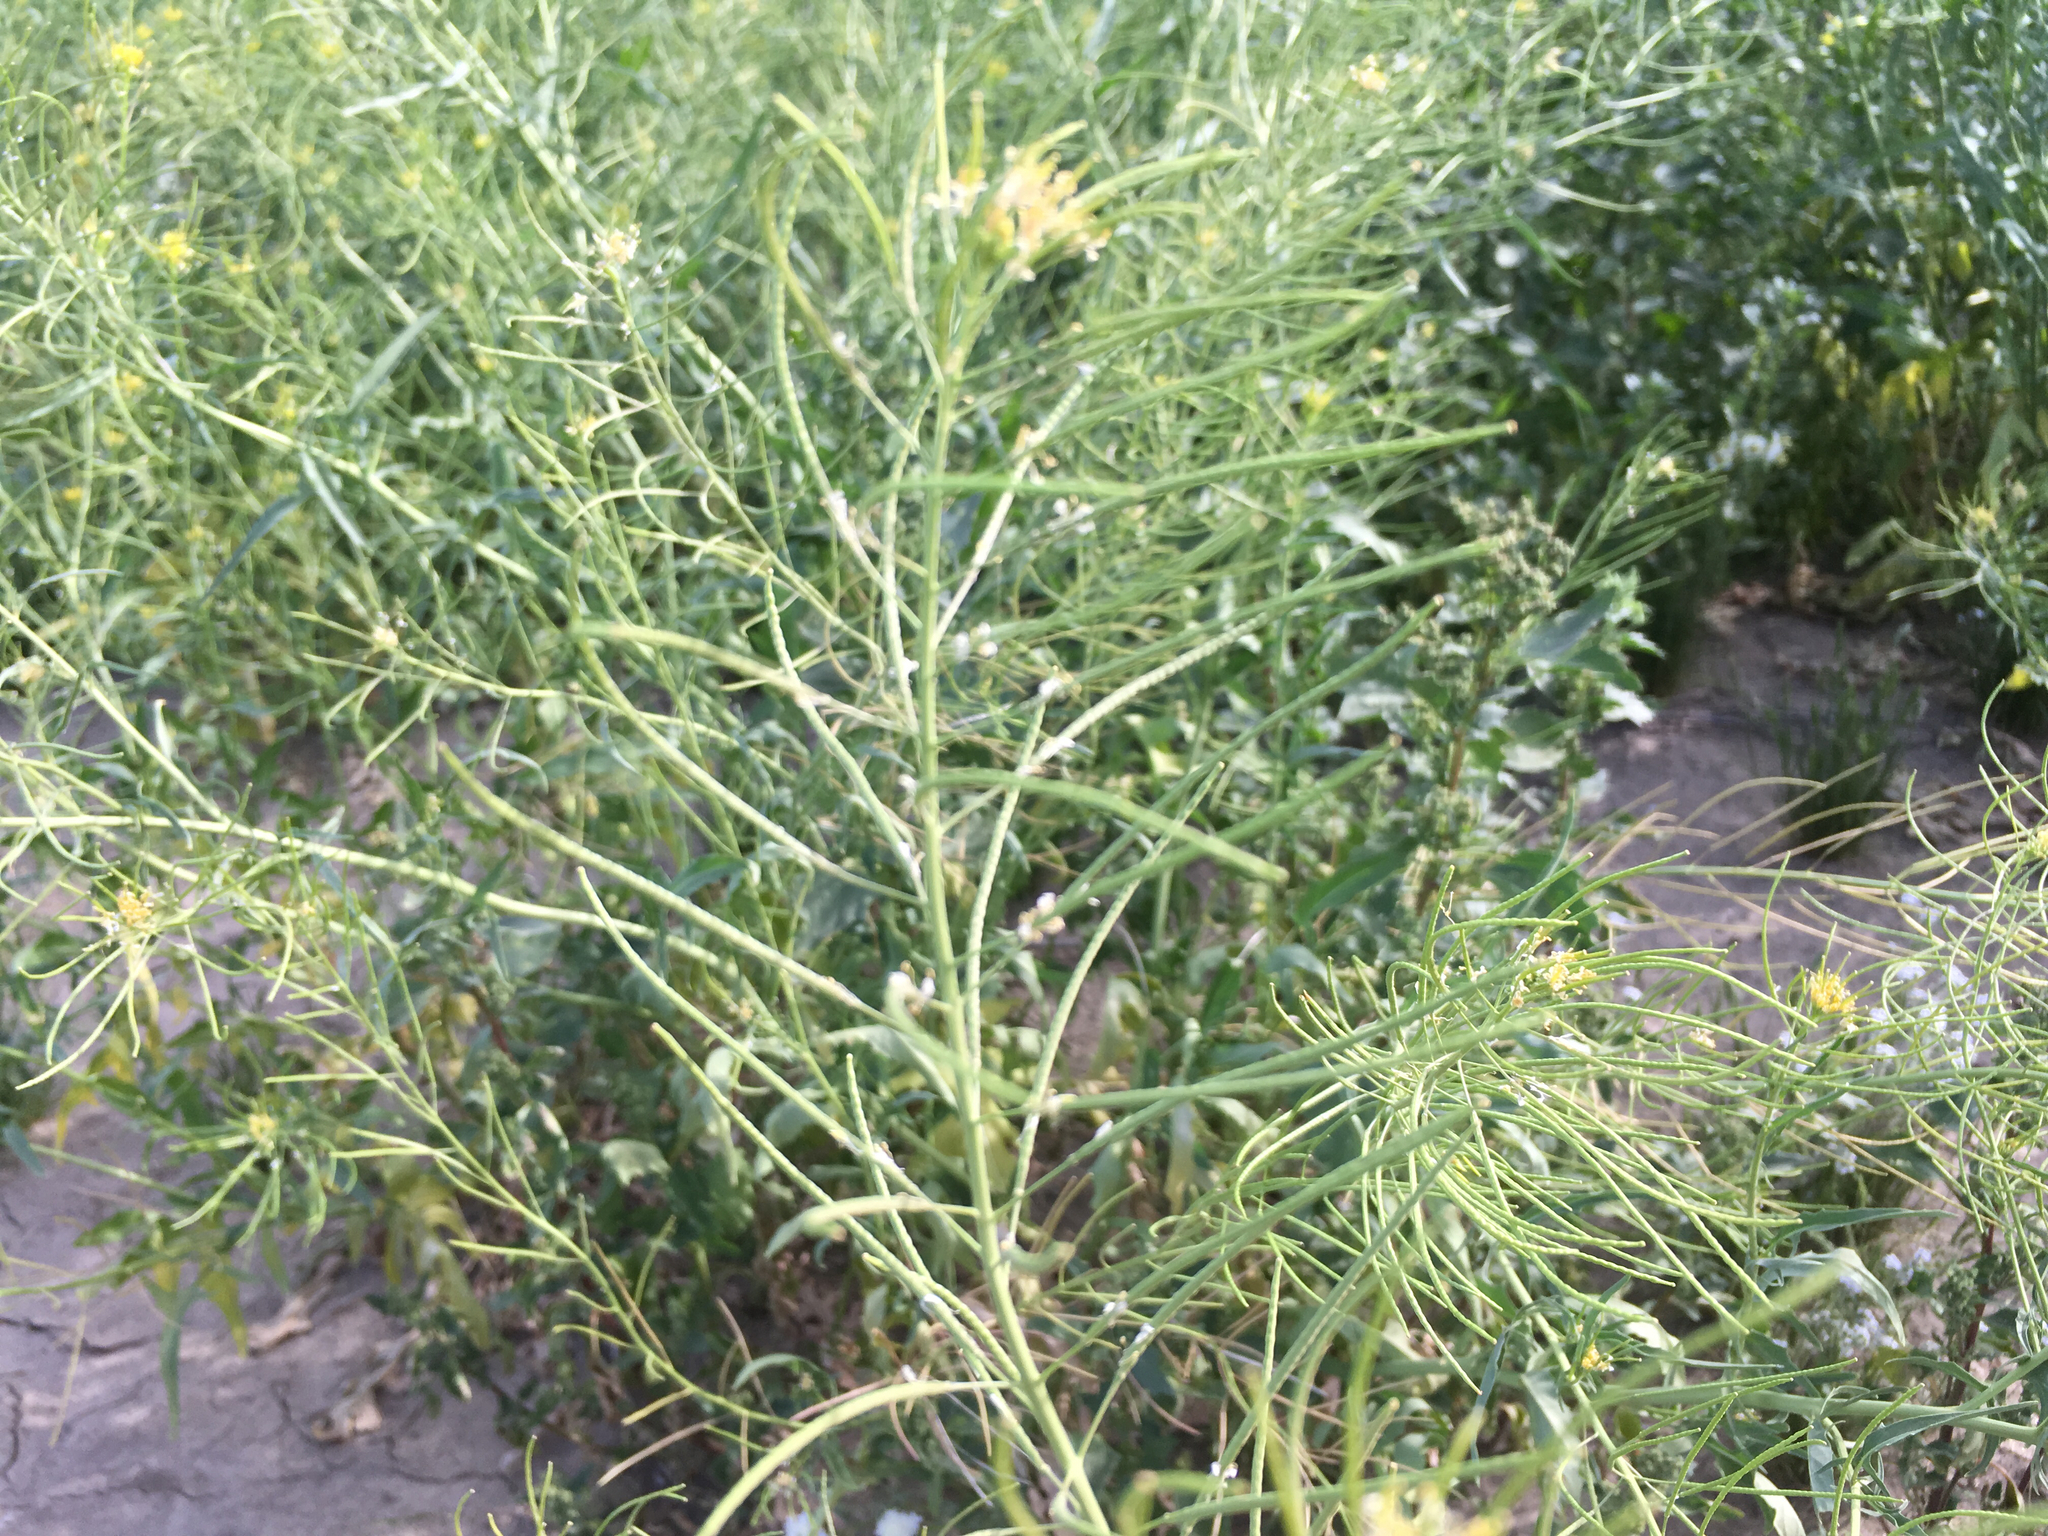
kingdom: Plantae
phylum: Tracheophyta
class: Magnoliopsida
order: Brassicales
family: Brassicaceae
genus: Sisymbrium
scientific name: Sisymbrium irio
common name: London rocket
